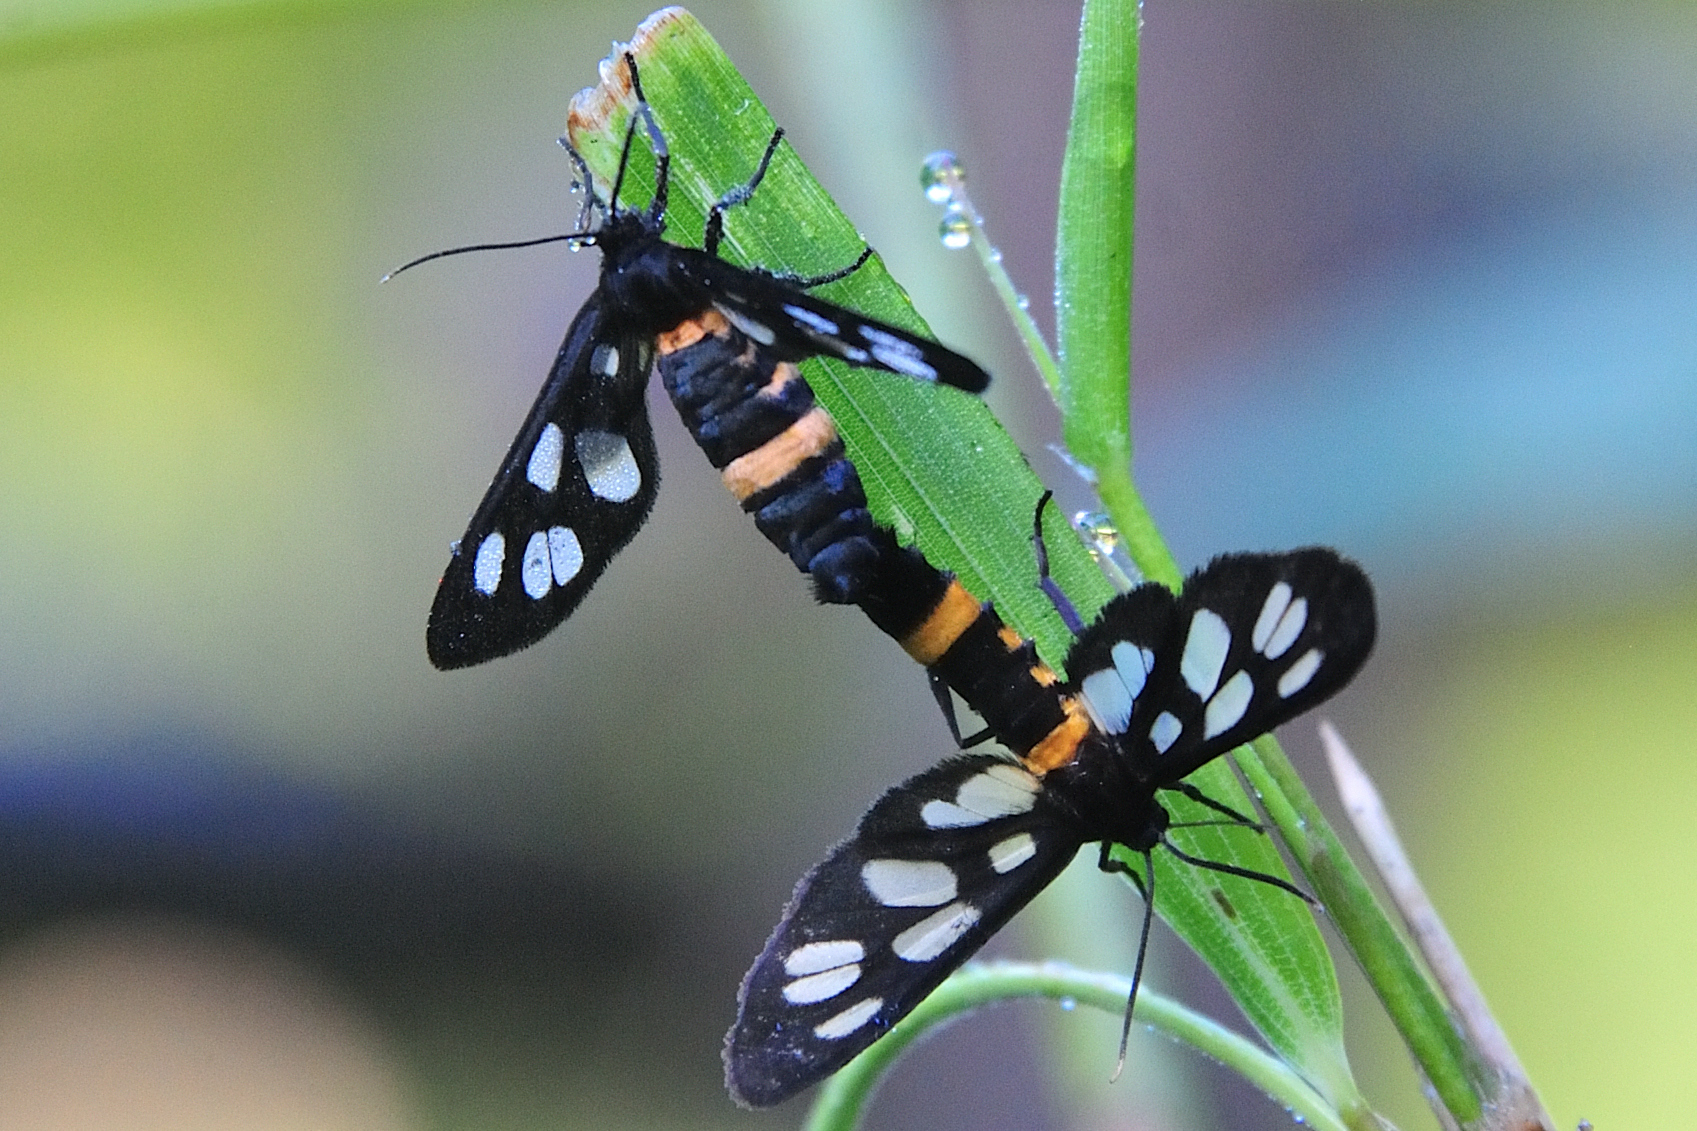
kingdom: Animalia
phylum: Arthropoda
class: Insecta
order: Lepidoptera
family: Erebidae
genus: Amata
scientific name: Amata fortunei
